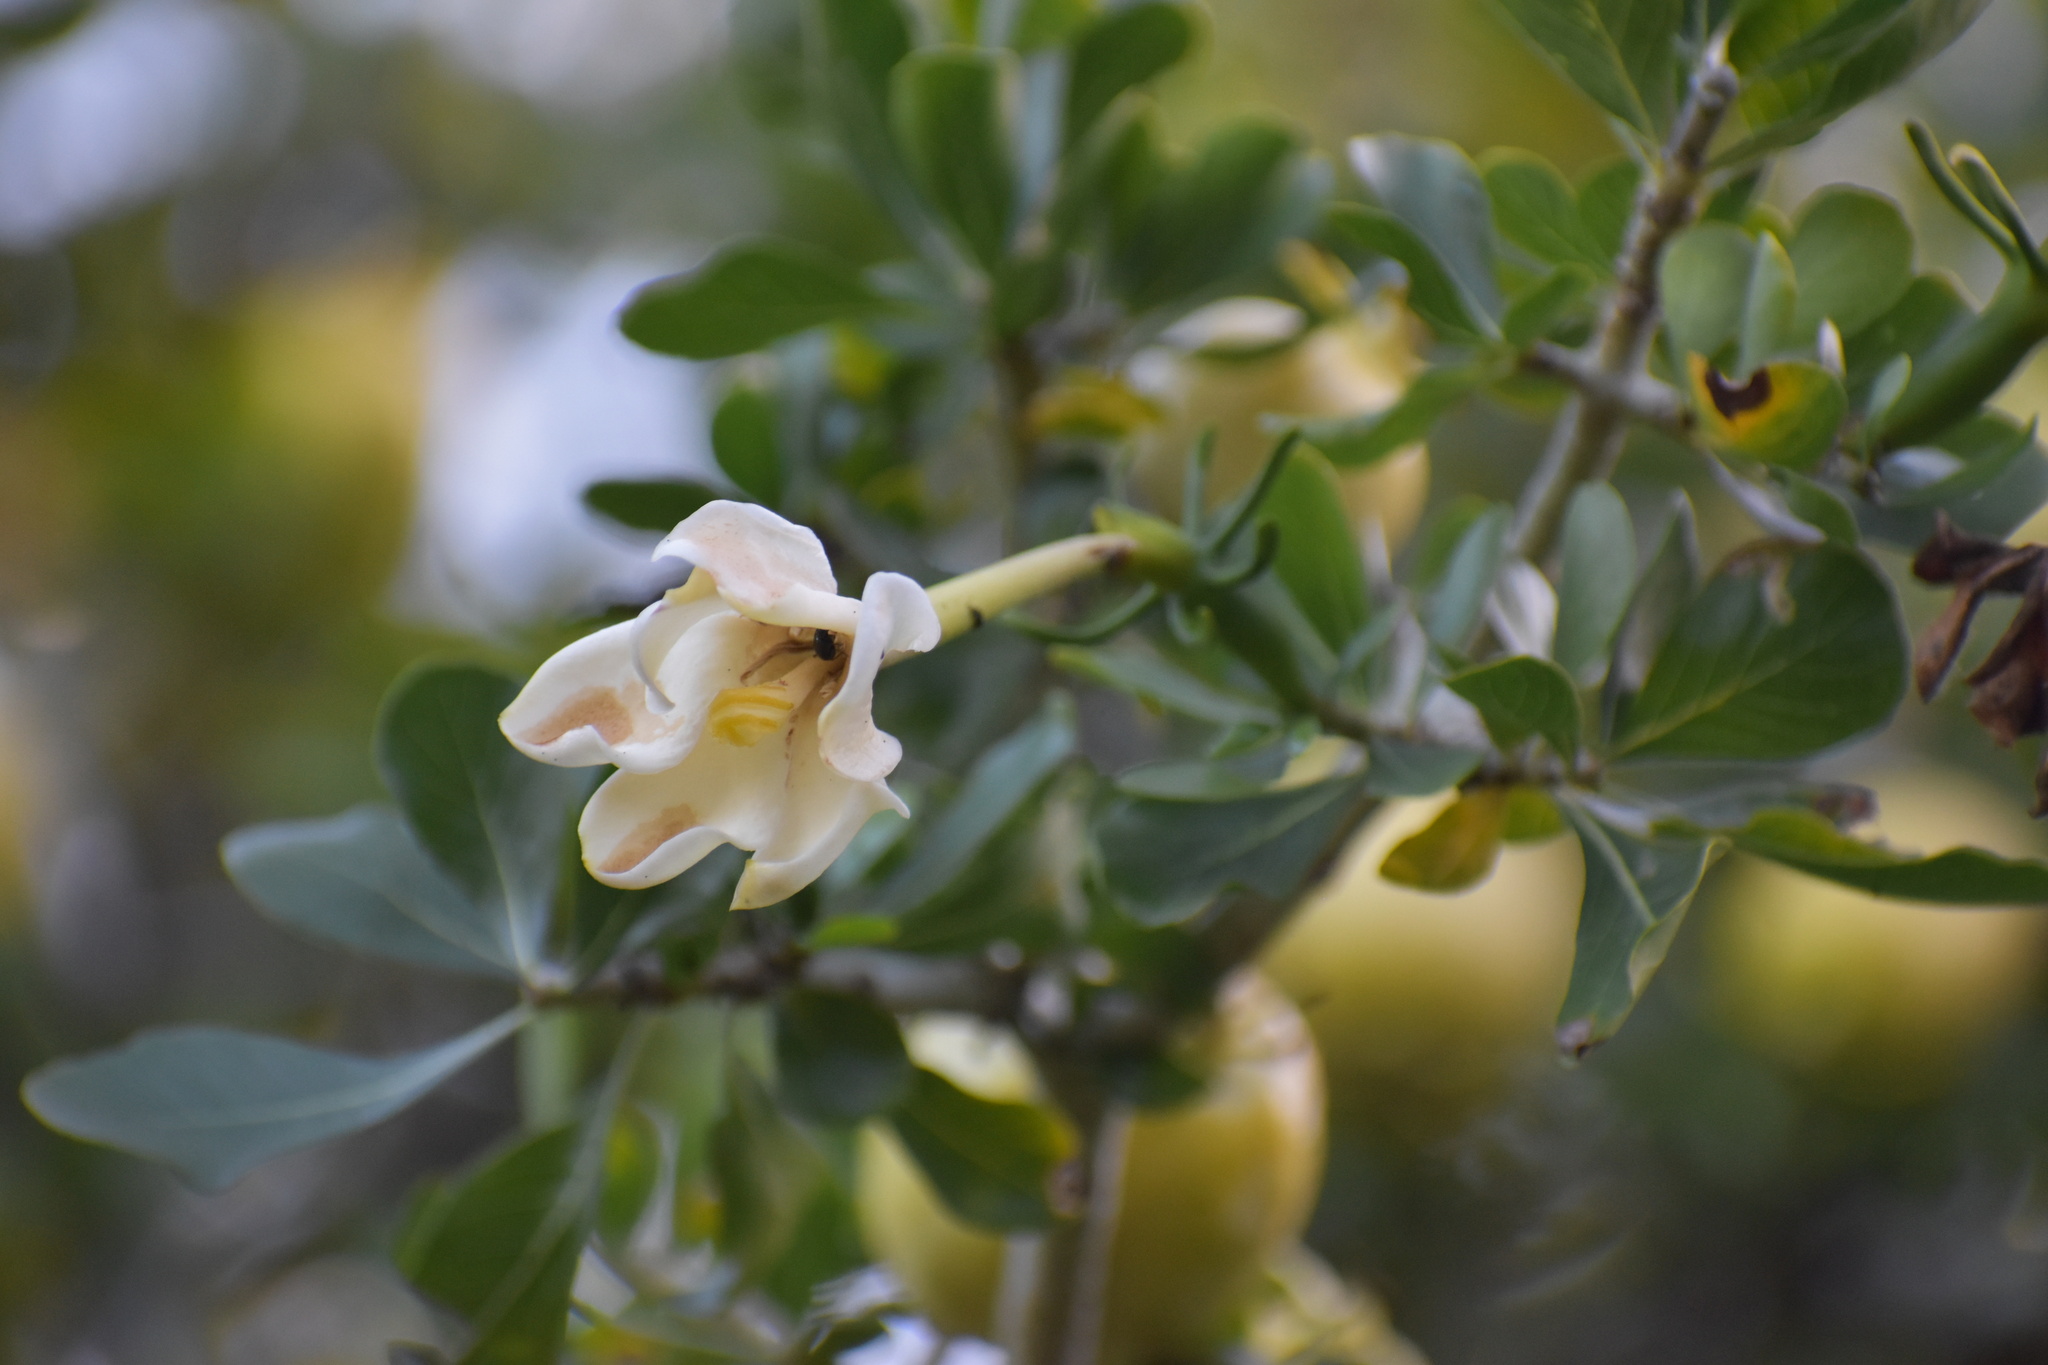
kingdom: Plantae
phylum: Tracheophyta
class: Magnoliopsida
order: Gentianales
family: Rubiaceae
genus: Gardenia
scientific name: Gardenia cornuta
